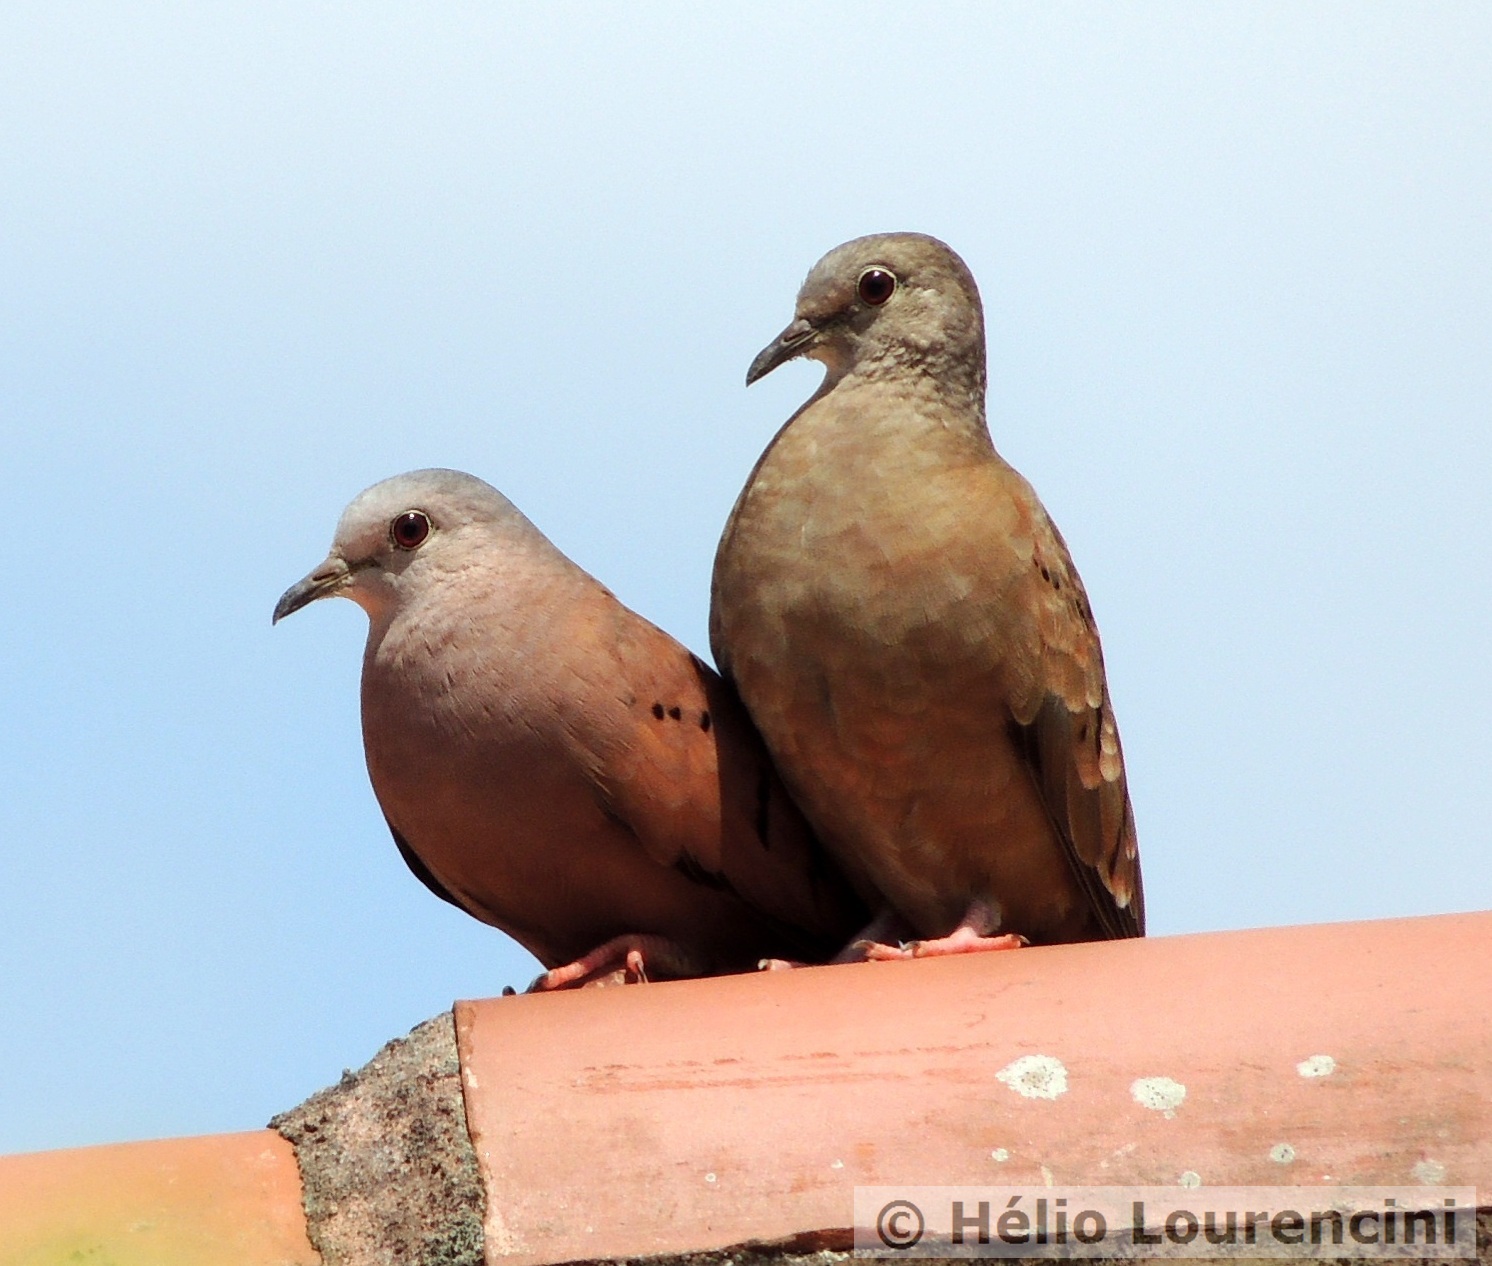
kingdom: Animalia
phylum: Chordata
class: Aves
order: Columbiformes
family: Columbidae
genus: Columbina
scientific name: Columbina talpacoti
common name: Ruddy ground dove
